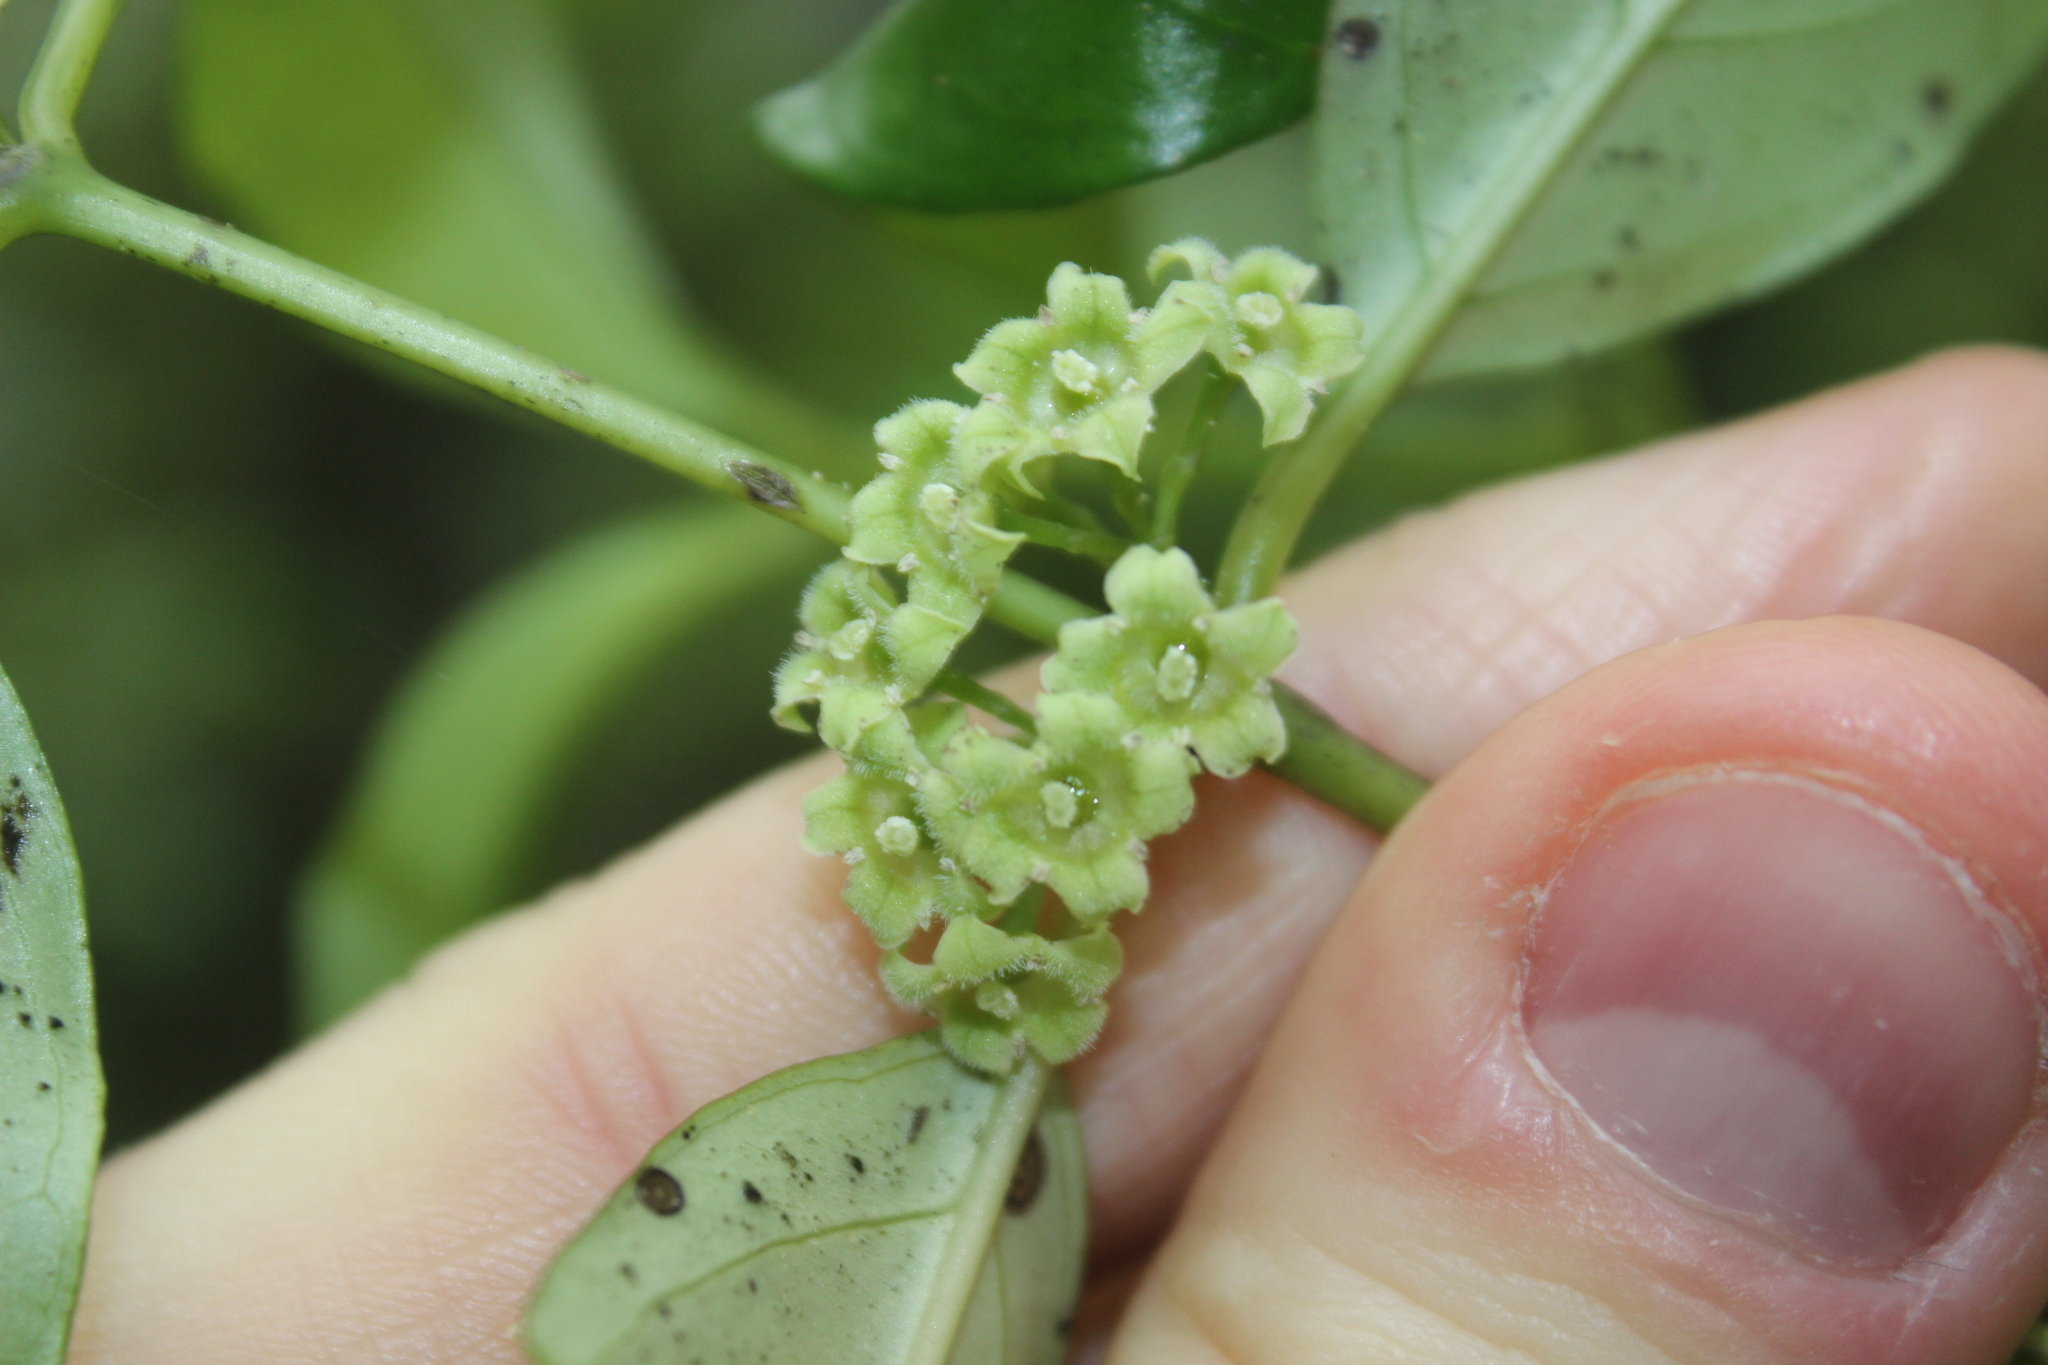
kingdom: Plantae
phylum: Tracheophyta
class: Magnoliopsida
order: Gentianales
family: Loganiaceae
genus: Geniostoma
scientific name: Geniostoma ligustrifolium
